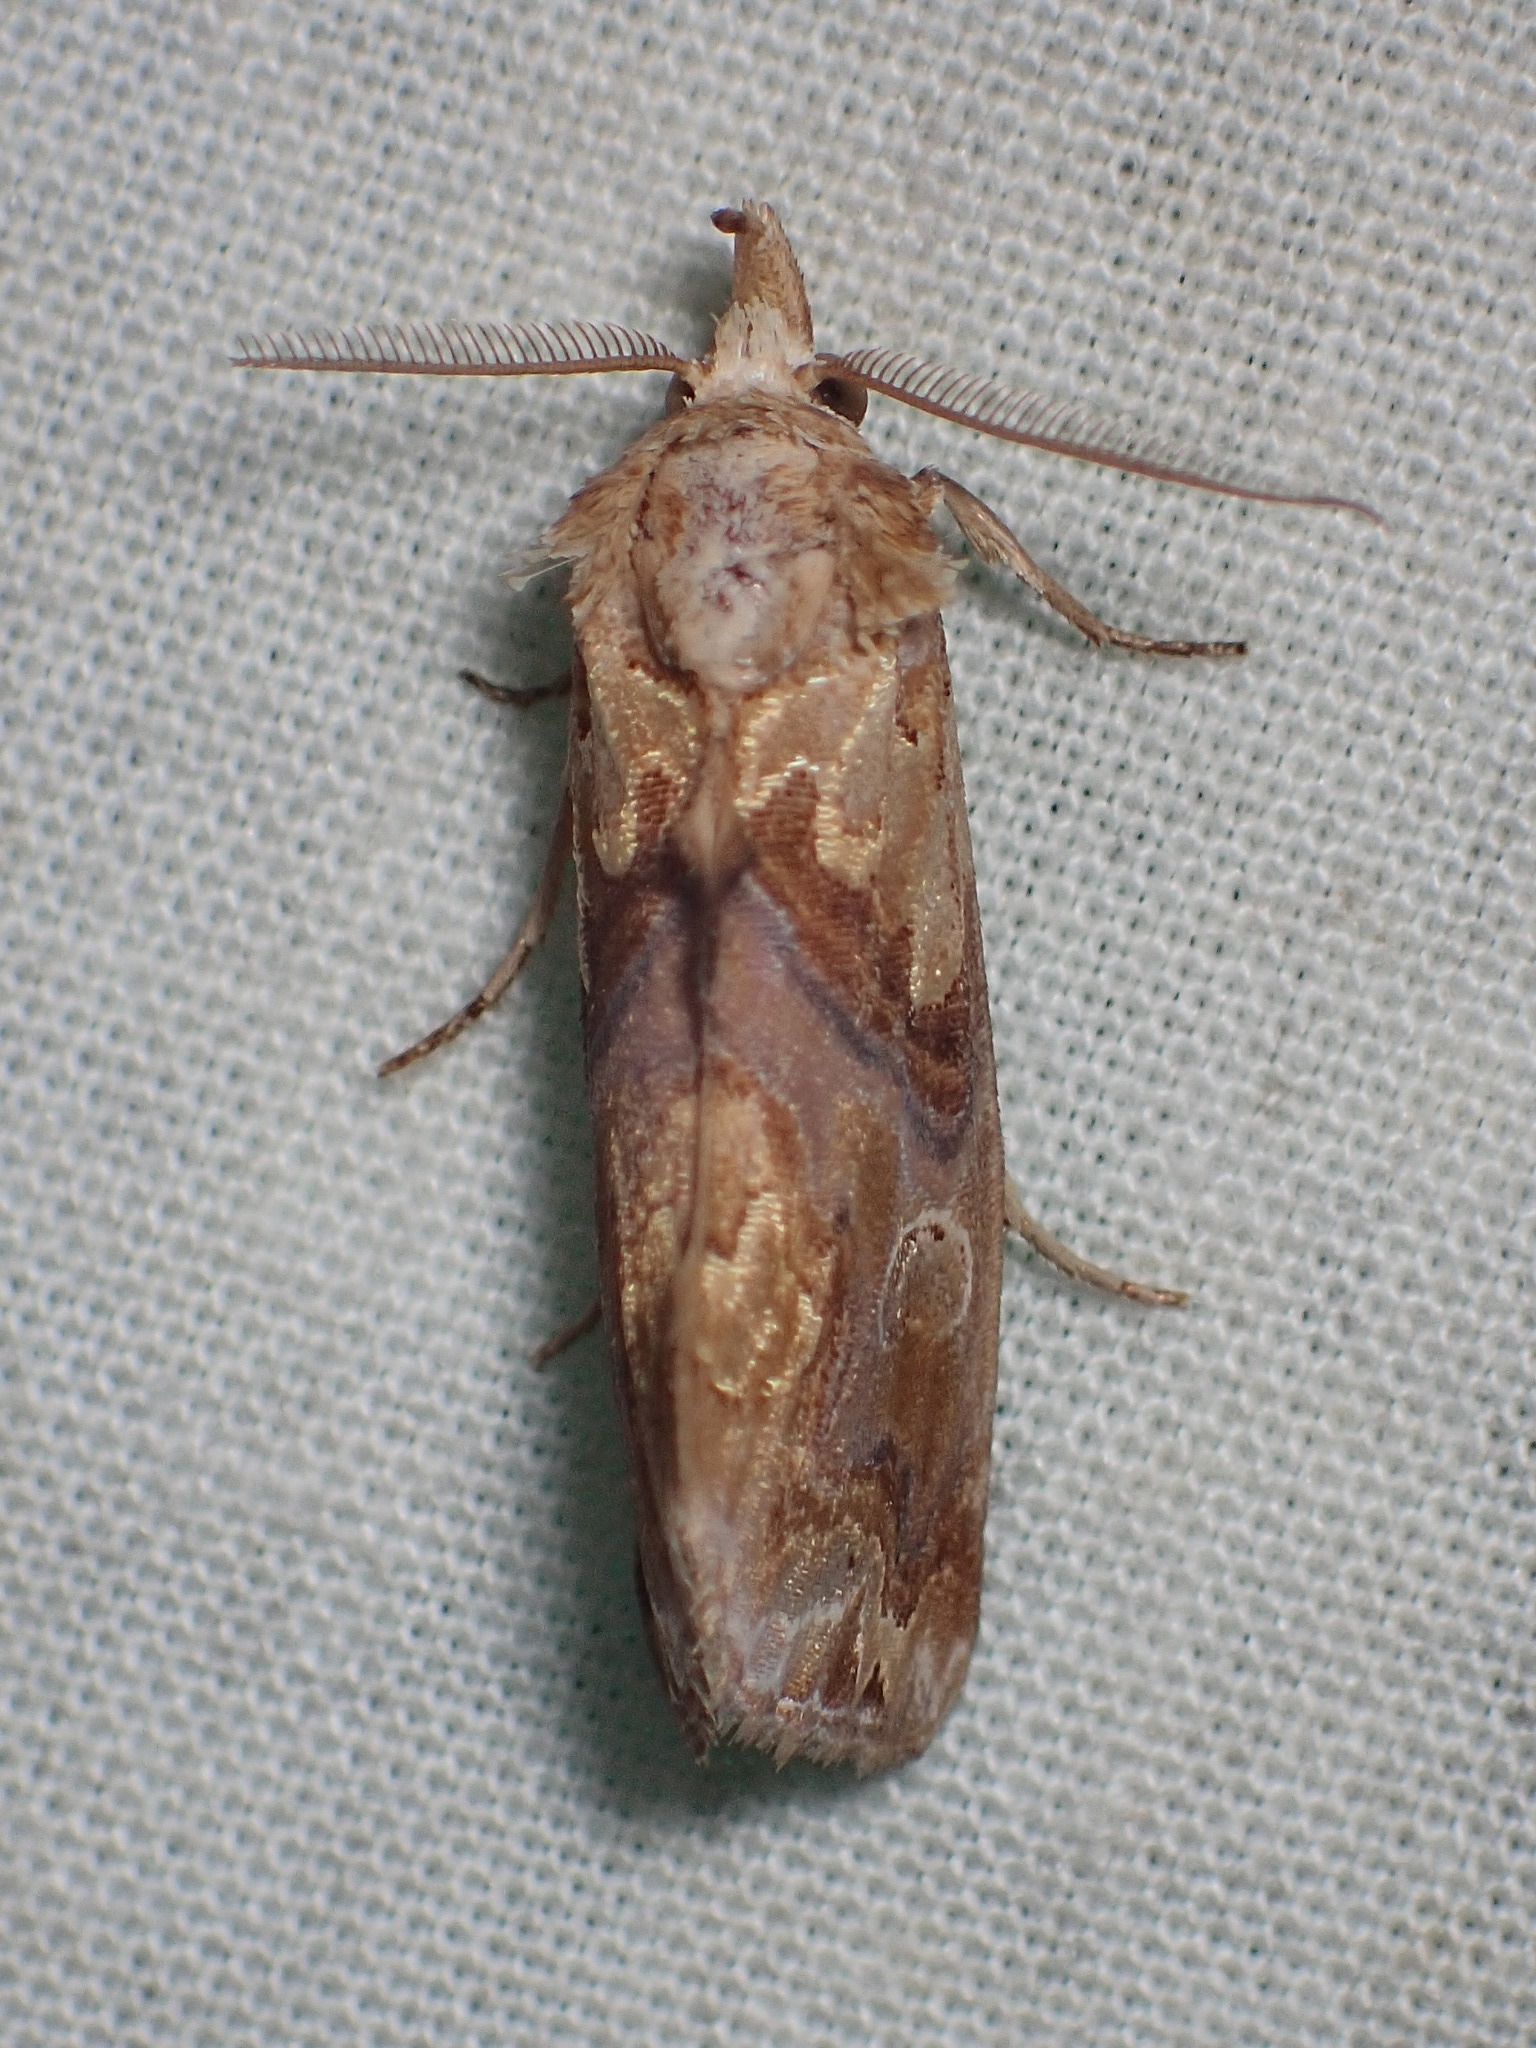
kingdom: Animalia
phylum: Arthropoda
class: Insecta
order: Lepidoptera
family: Erebidae
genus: Plusiodonta
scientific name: Plusiodonta compressipalpis
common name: Moonseed moth
